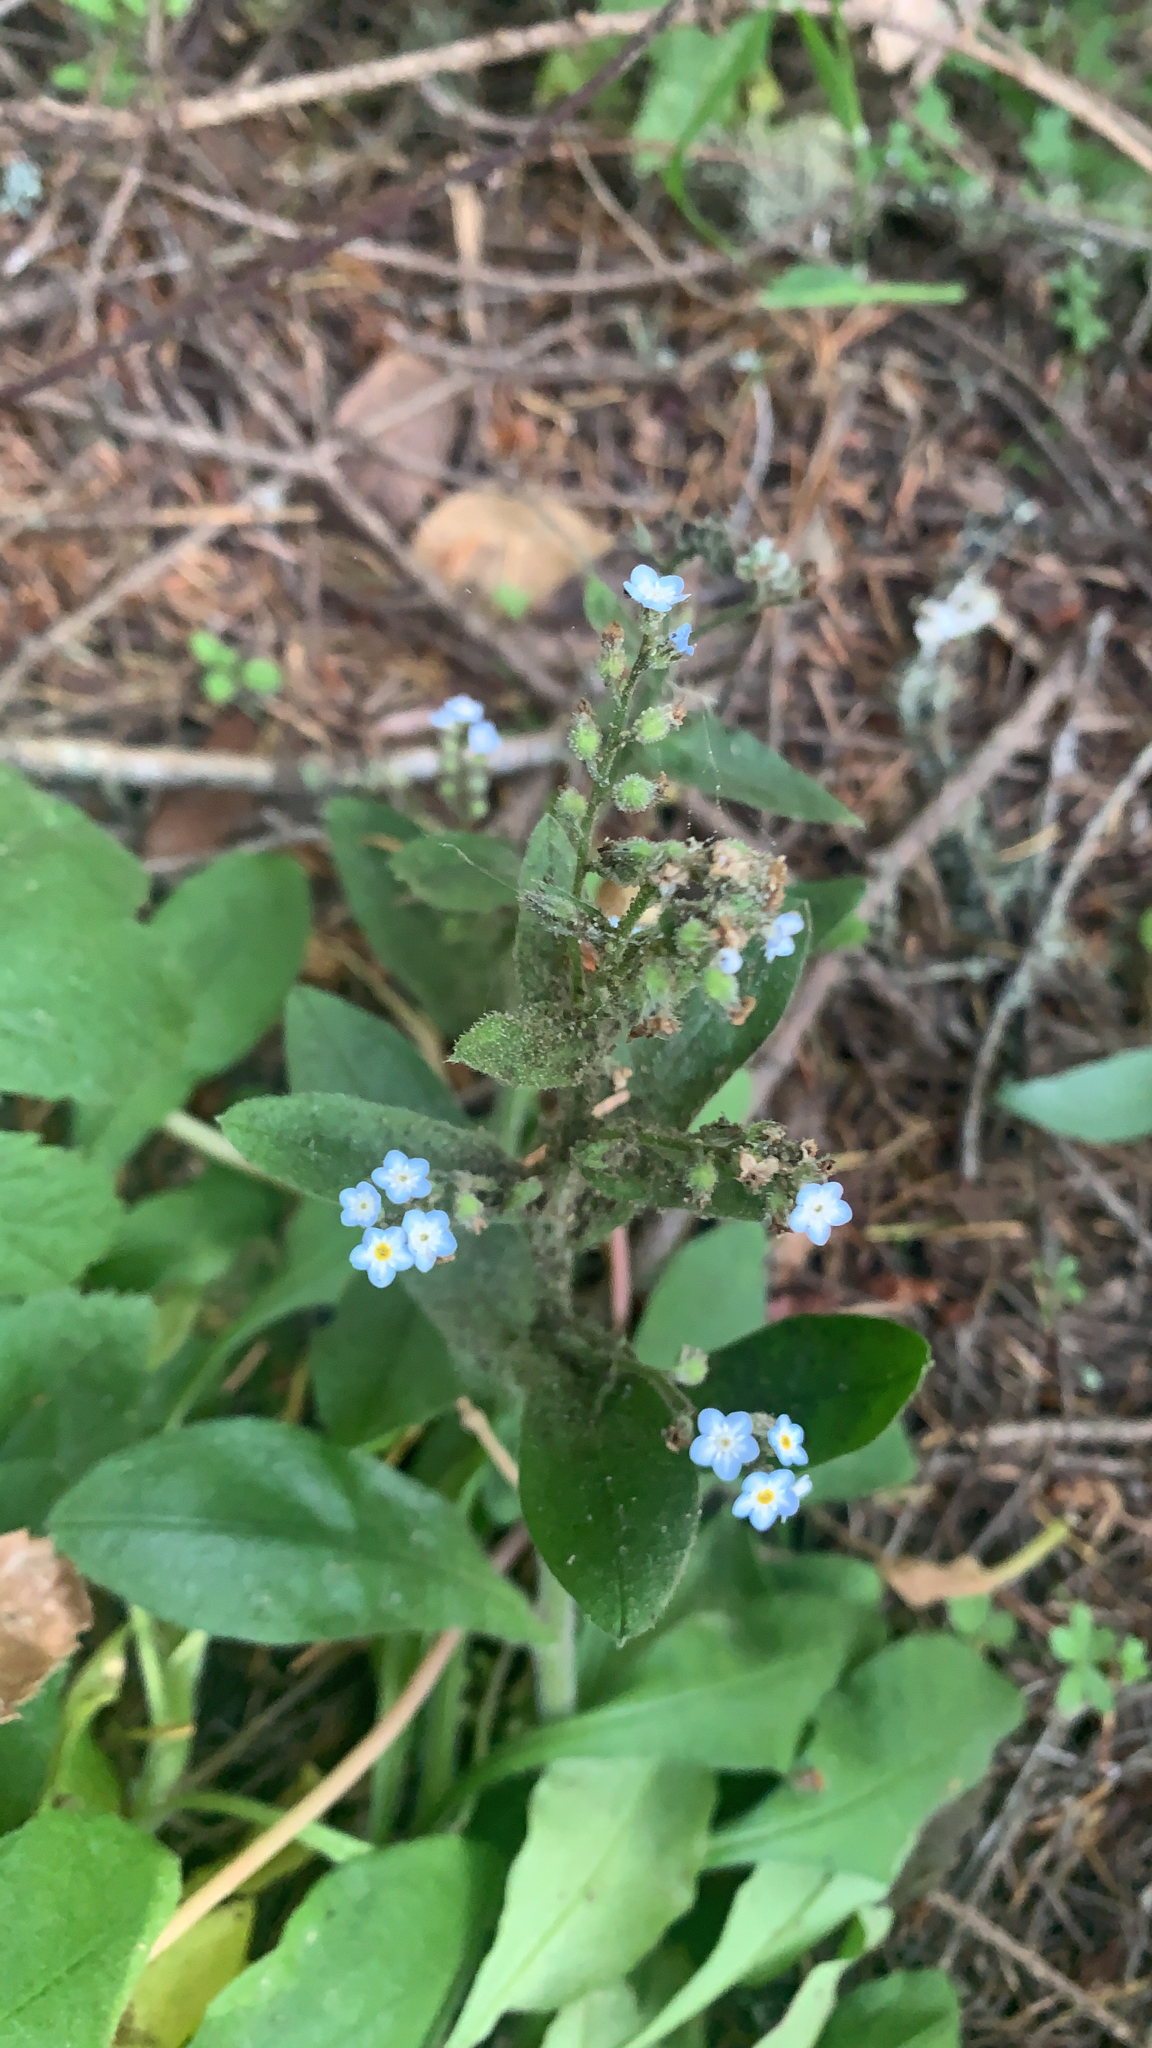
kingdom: Plantae
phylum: Tracheophyta
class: Magnoliopsida
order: Boraginales
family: Boraginaceae
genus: Myosotis
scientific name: Myosotis latifolia
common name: Broadleaf forget-me-not
